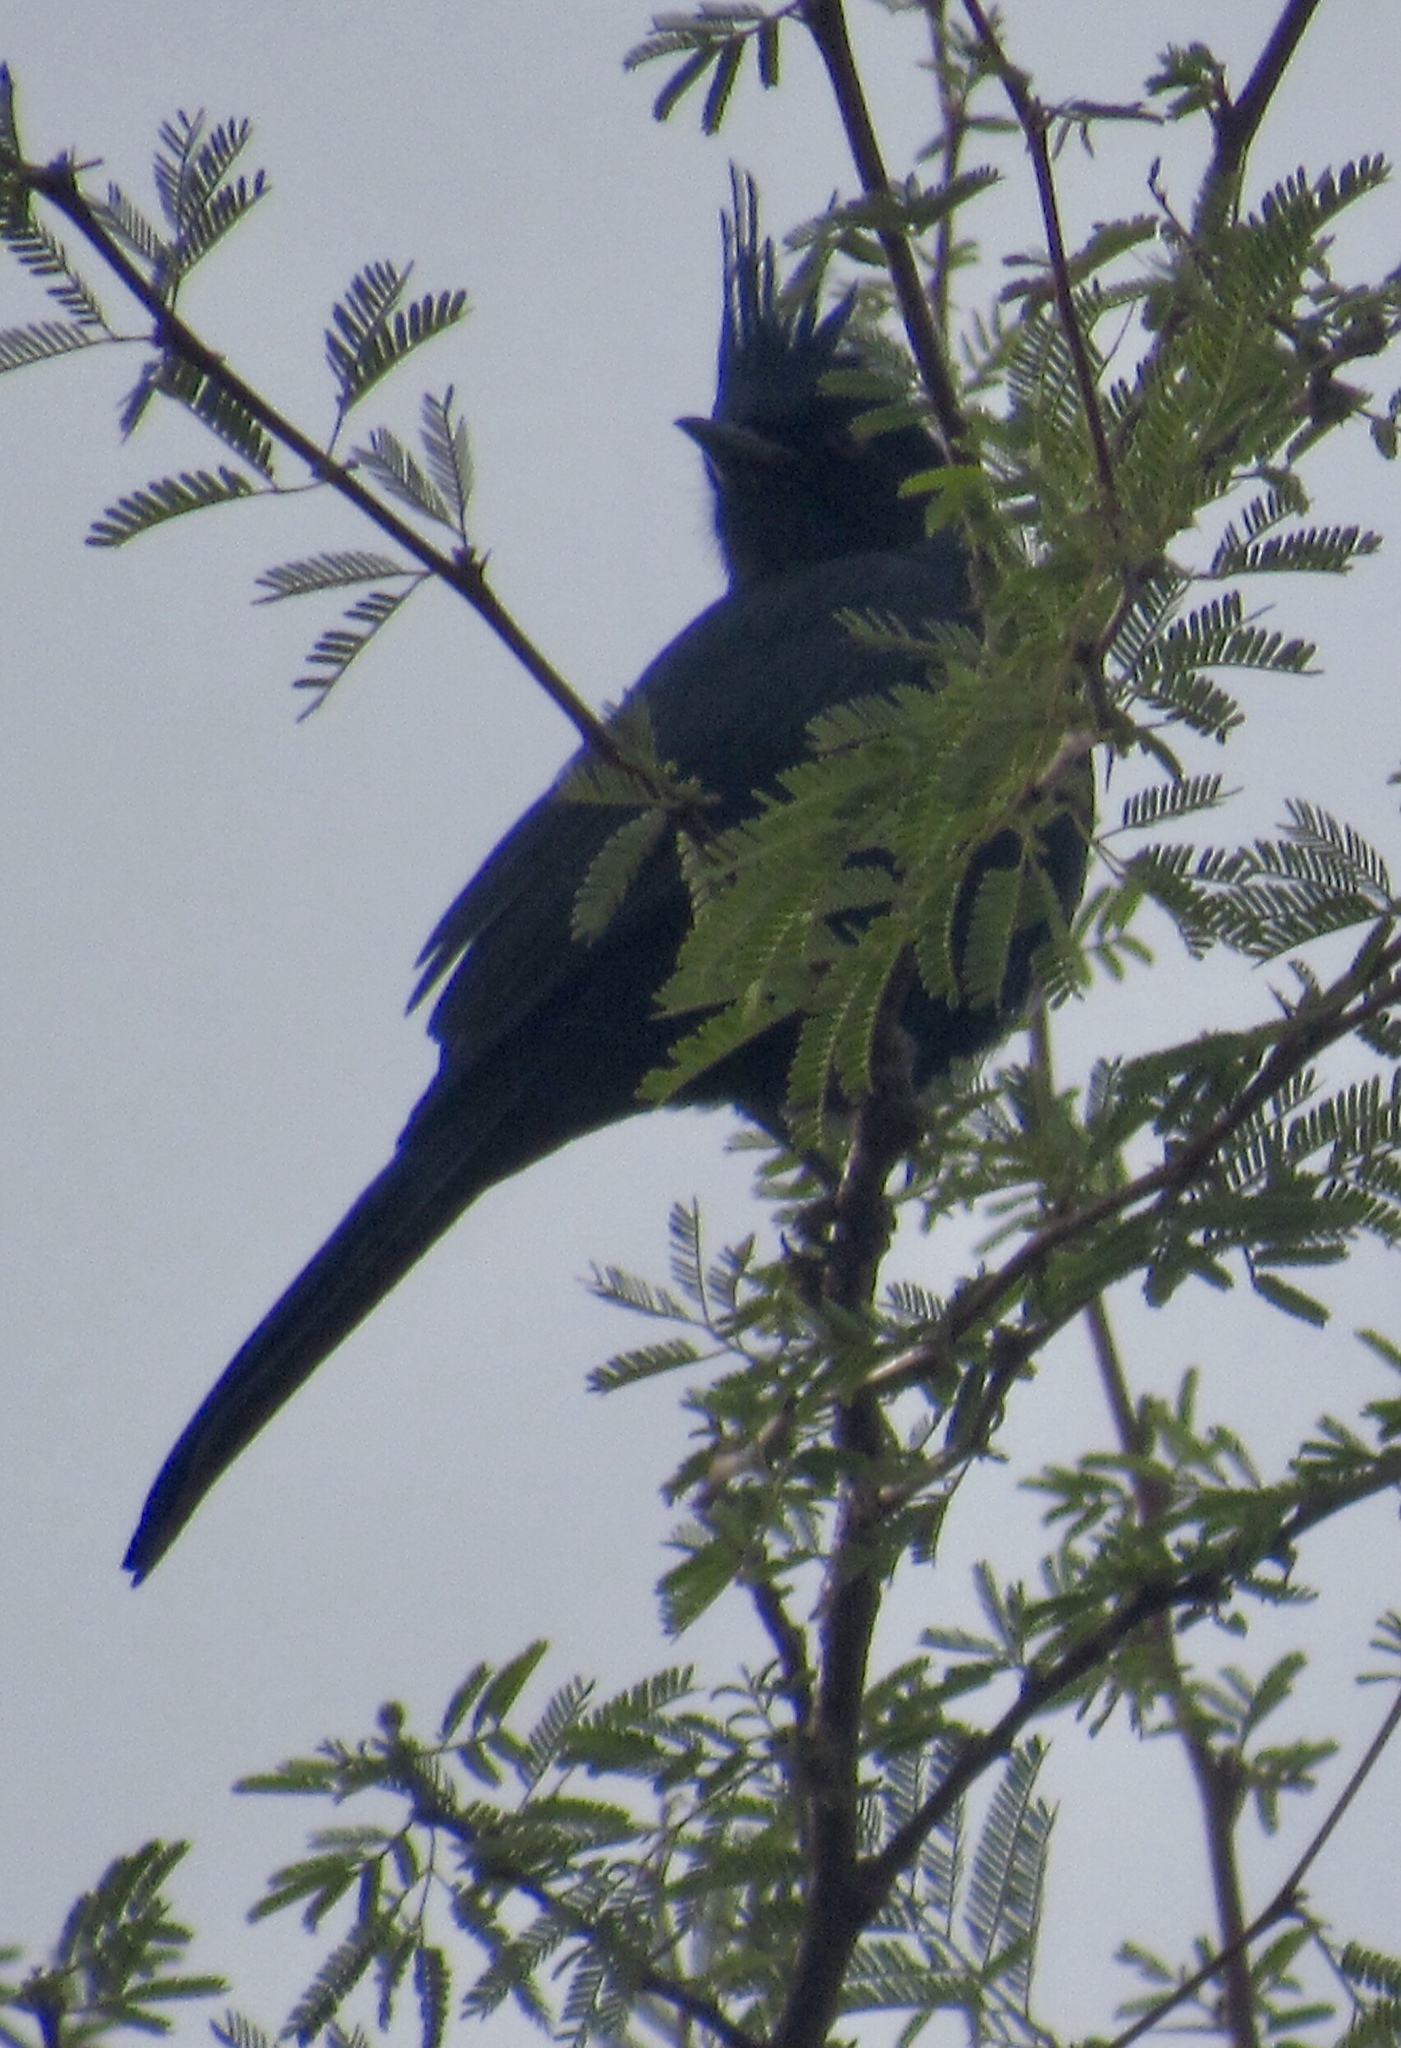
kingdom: Animalia
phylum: Chordata
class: Aves
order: Passeriformes
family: Ptilogonatidae
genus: Phainopepla
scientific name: Phainopepla nitens
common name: Phainopepla
